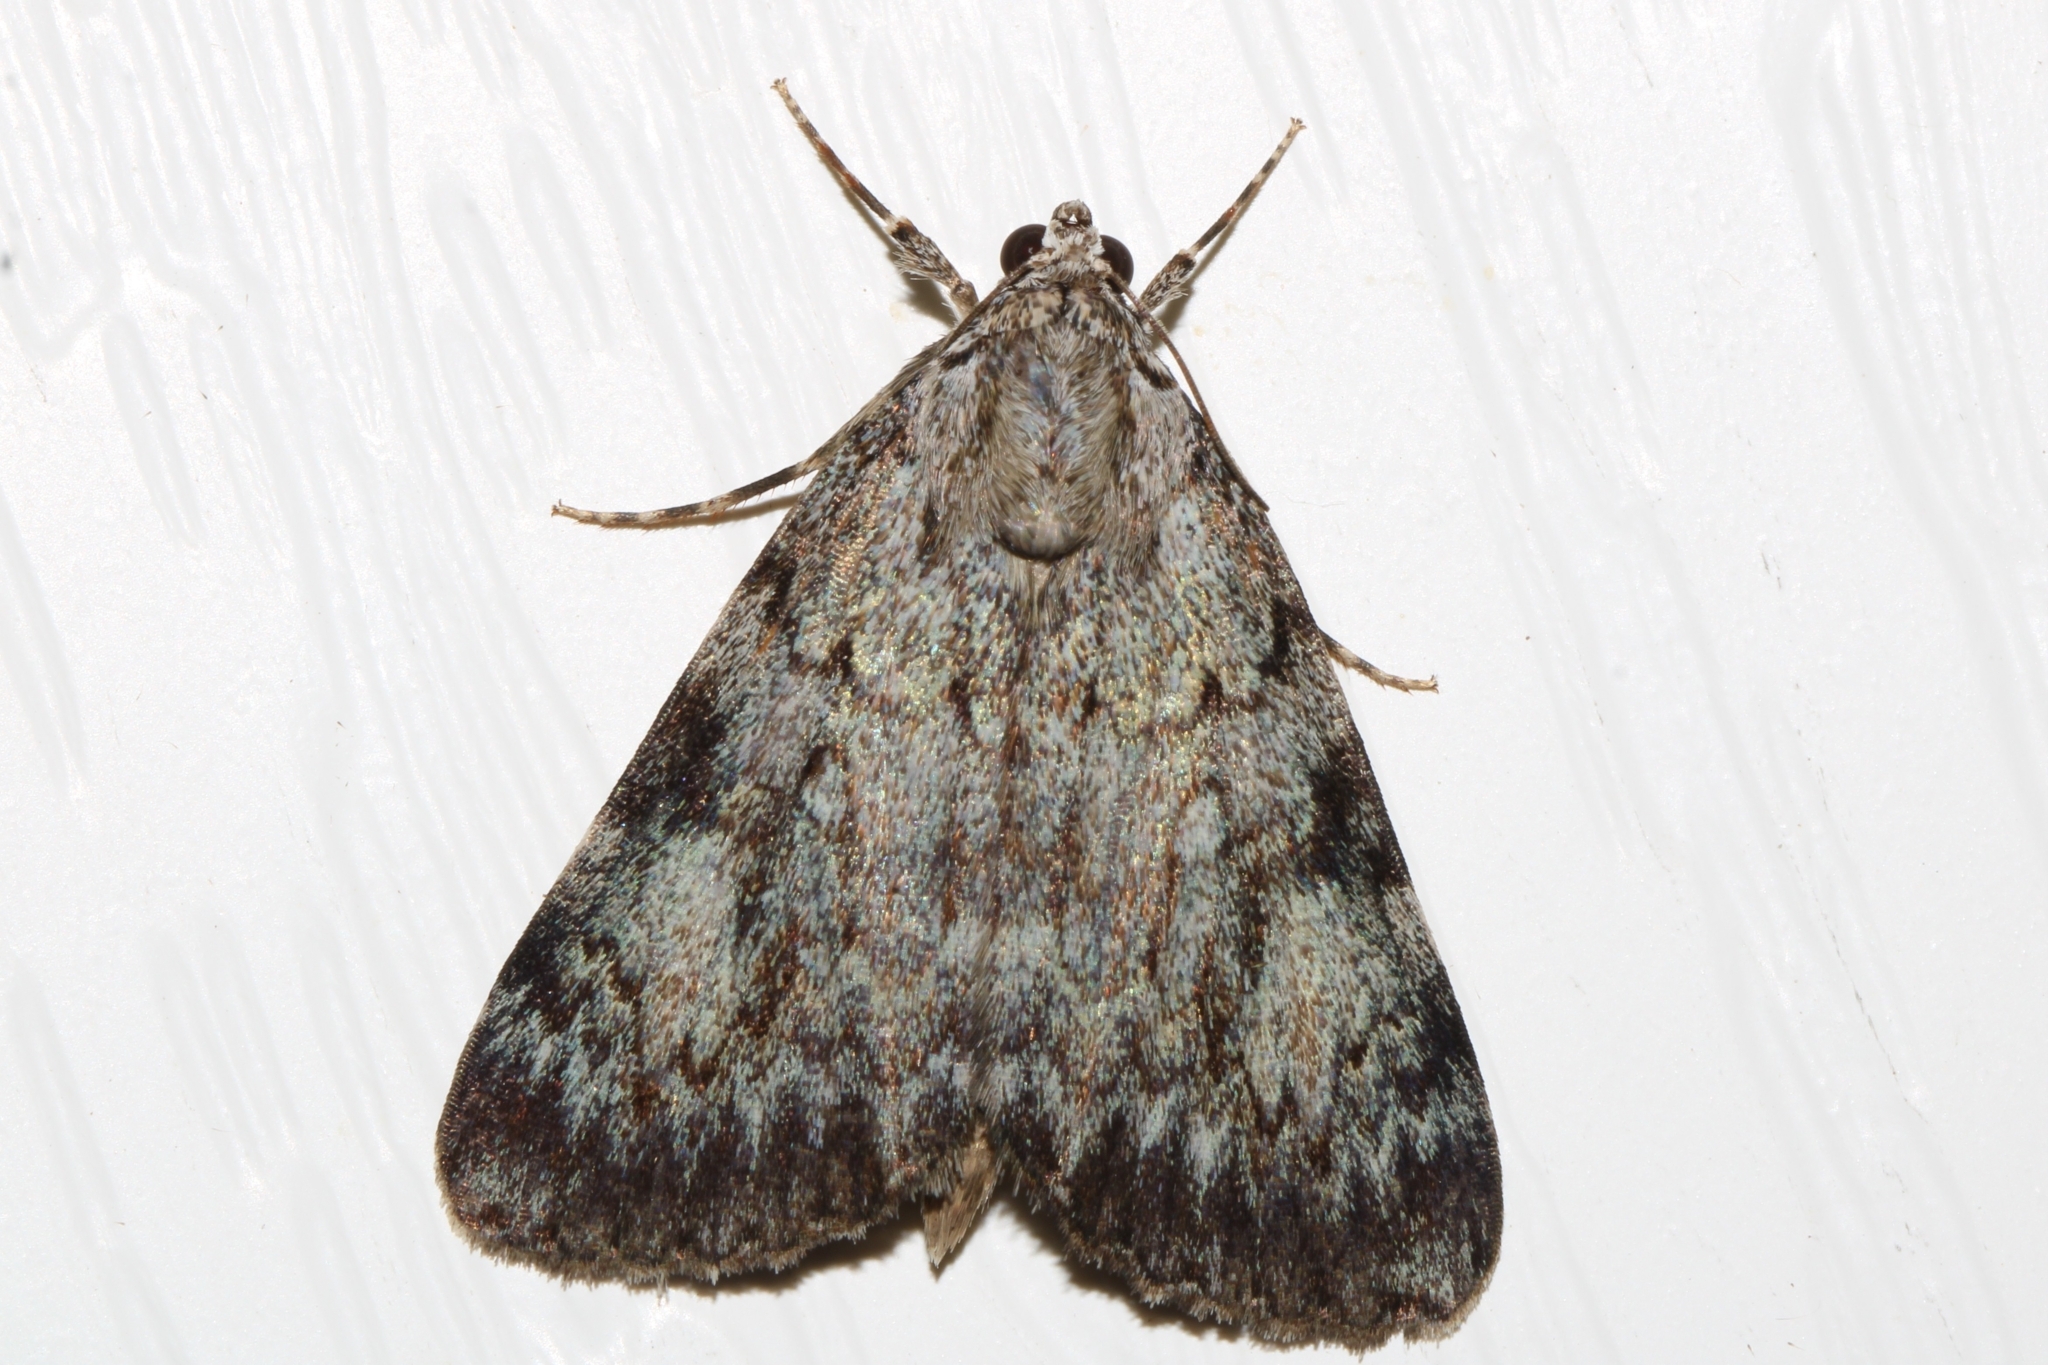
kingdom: Animalia
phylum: Arthropoda
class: Insecta
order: Lepidoptera
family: Erebidae
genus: Catocala
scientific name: Catocala amica
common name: Girlfriend underwing
